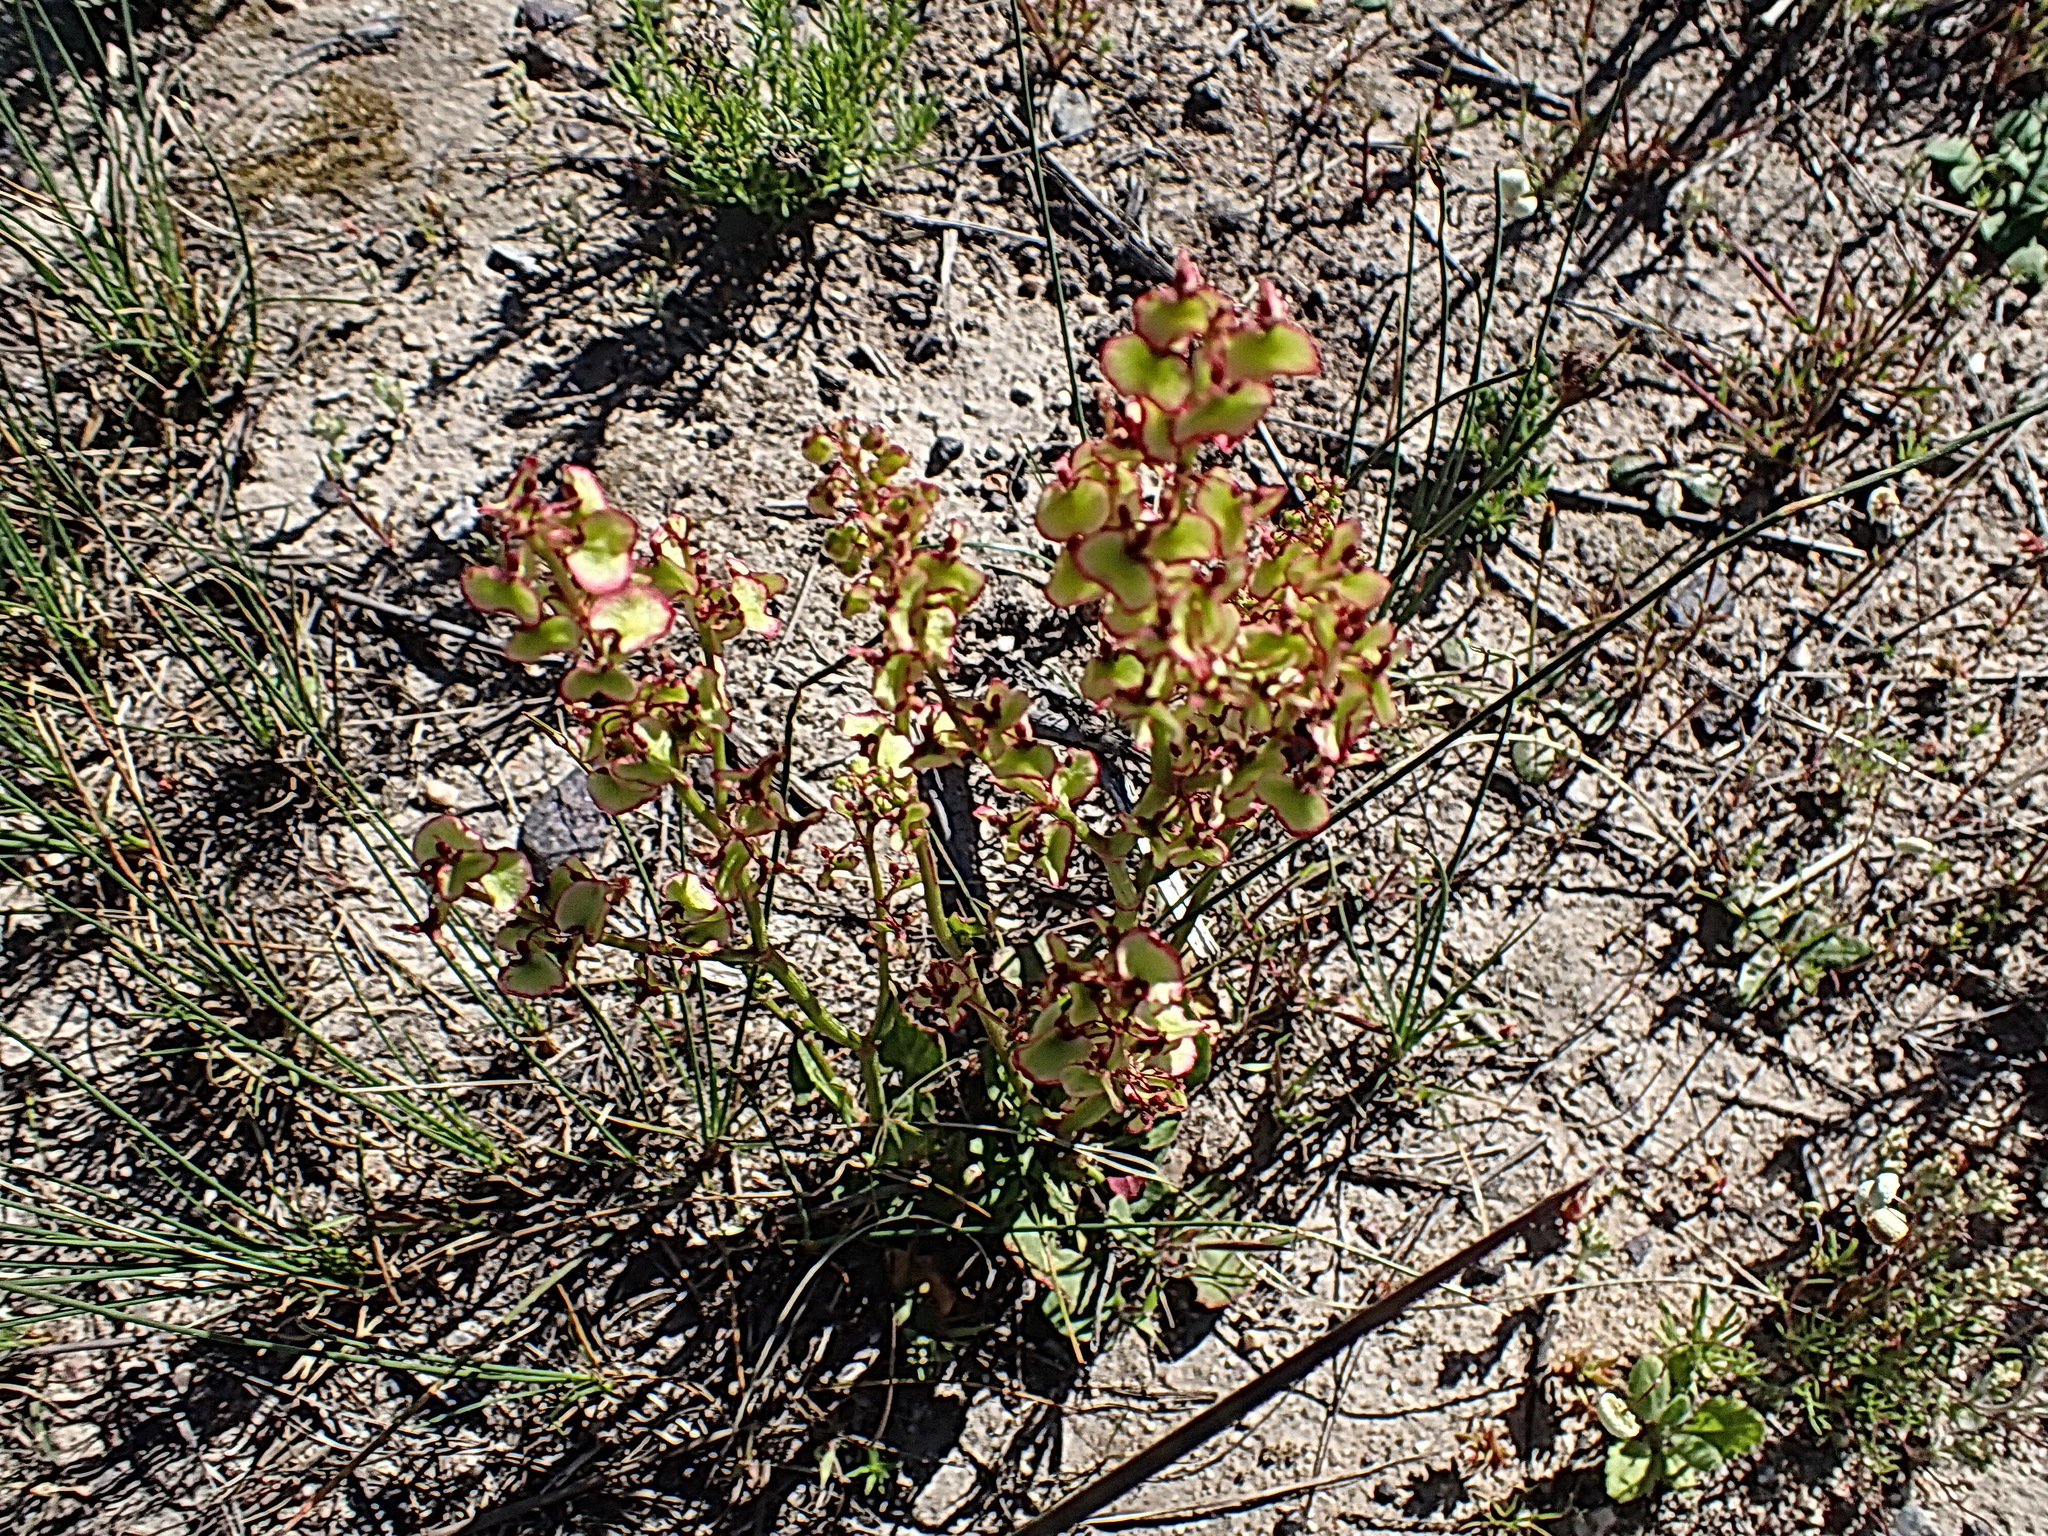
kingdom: Plantae
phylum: Tracheophyta
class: Magnoliopsida
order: Caryophyllales
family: Polygonaceae
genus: Rumex
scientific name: Rumex sagittatus
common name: Climbing dock
